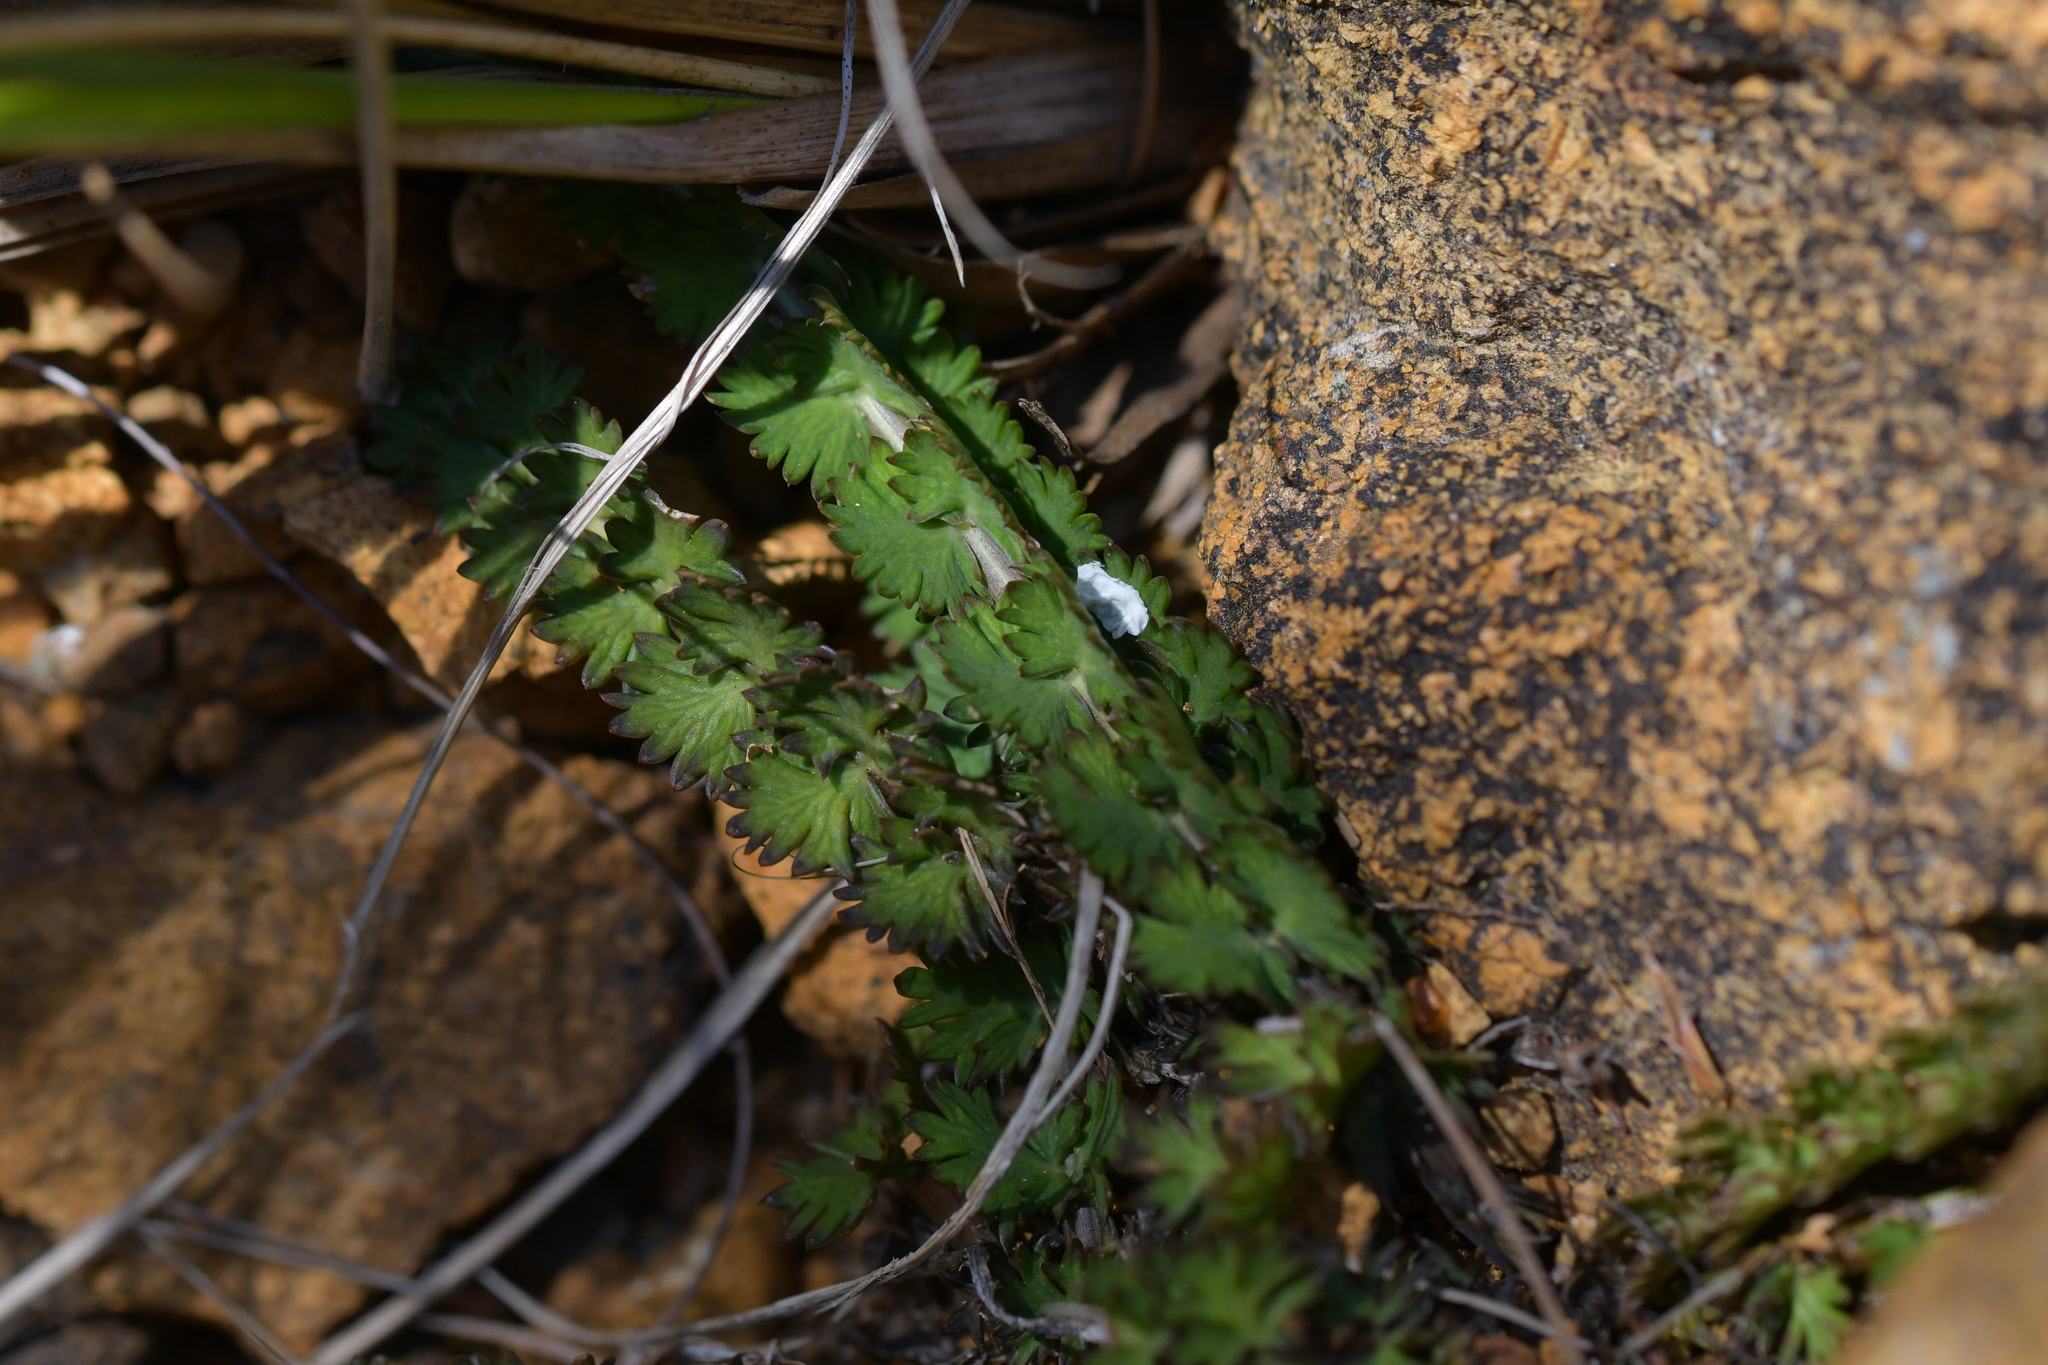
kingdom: Plantae
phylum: Tracheophyta
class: Magnoliopsida
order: Apiales
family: Apiaceae
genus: Anisotome
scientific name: Anisotome aromatica
